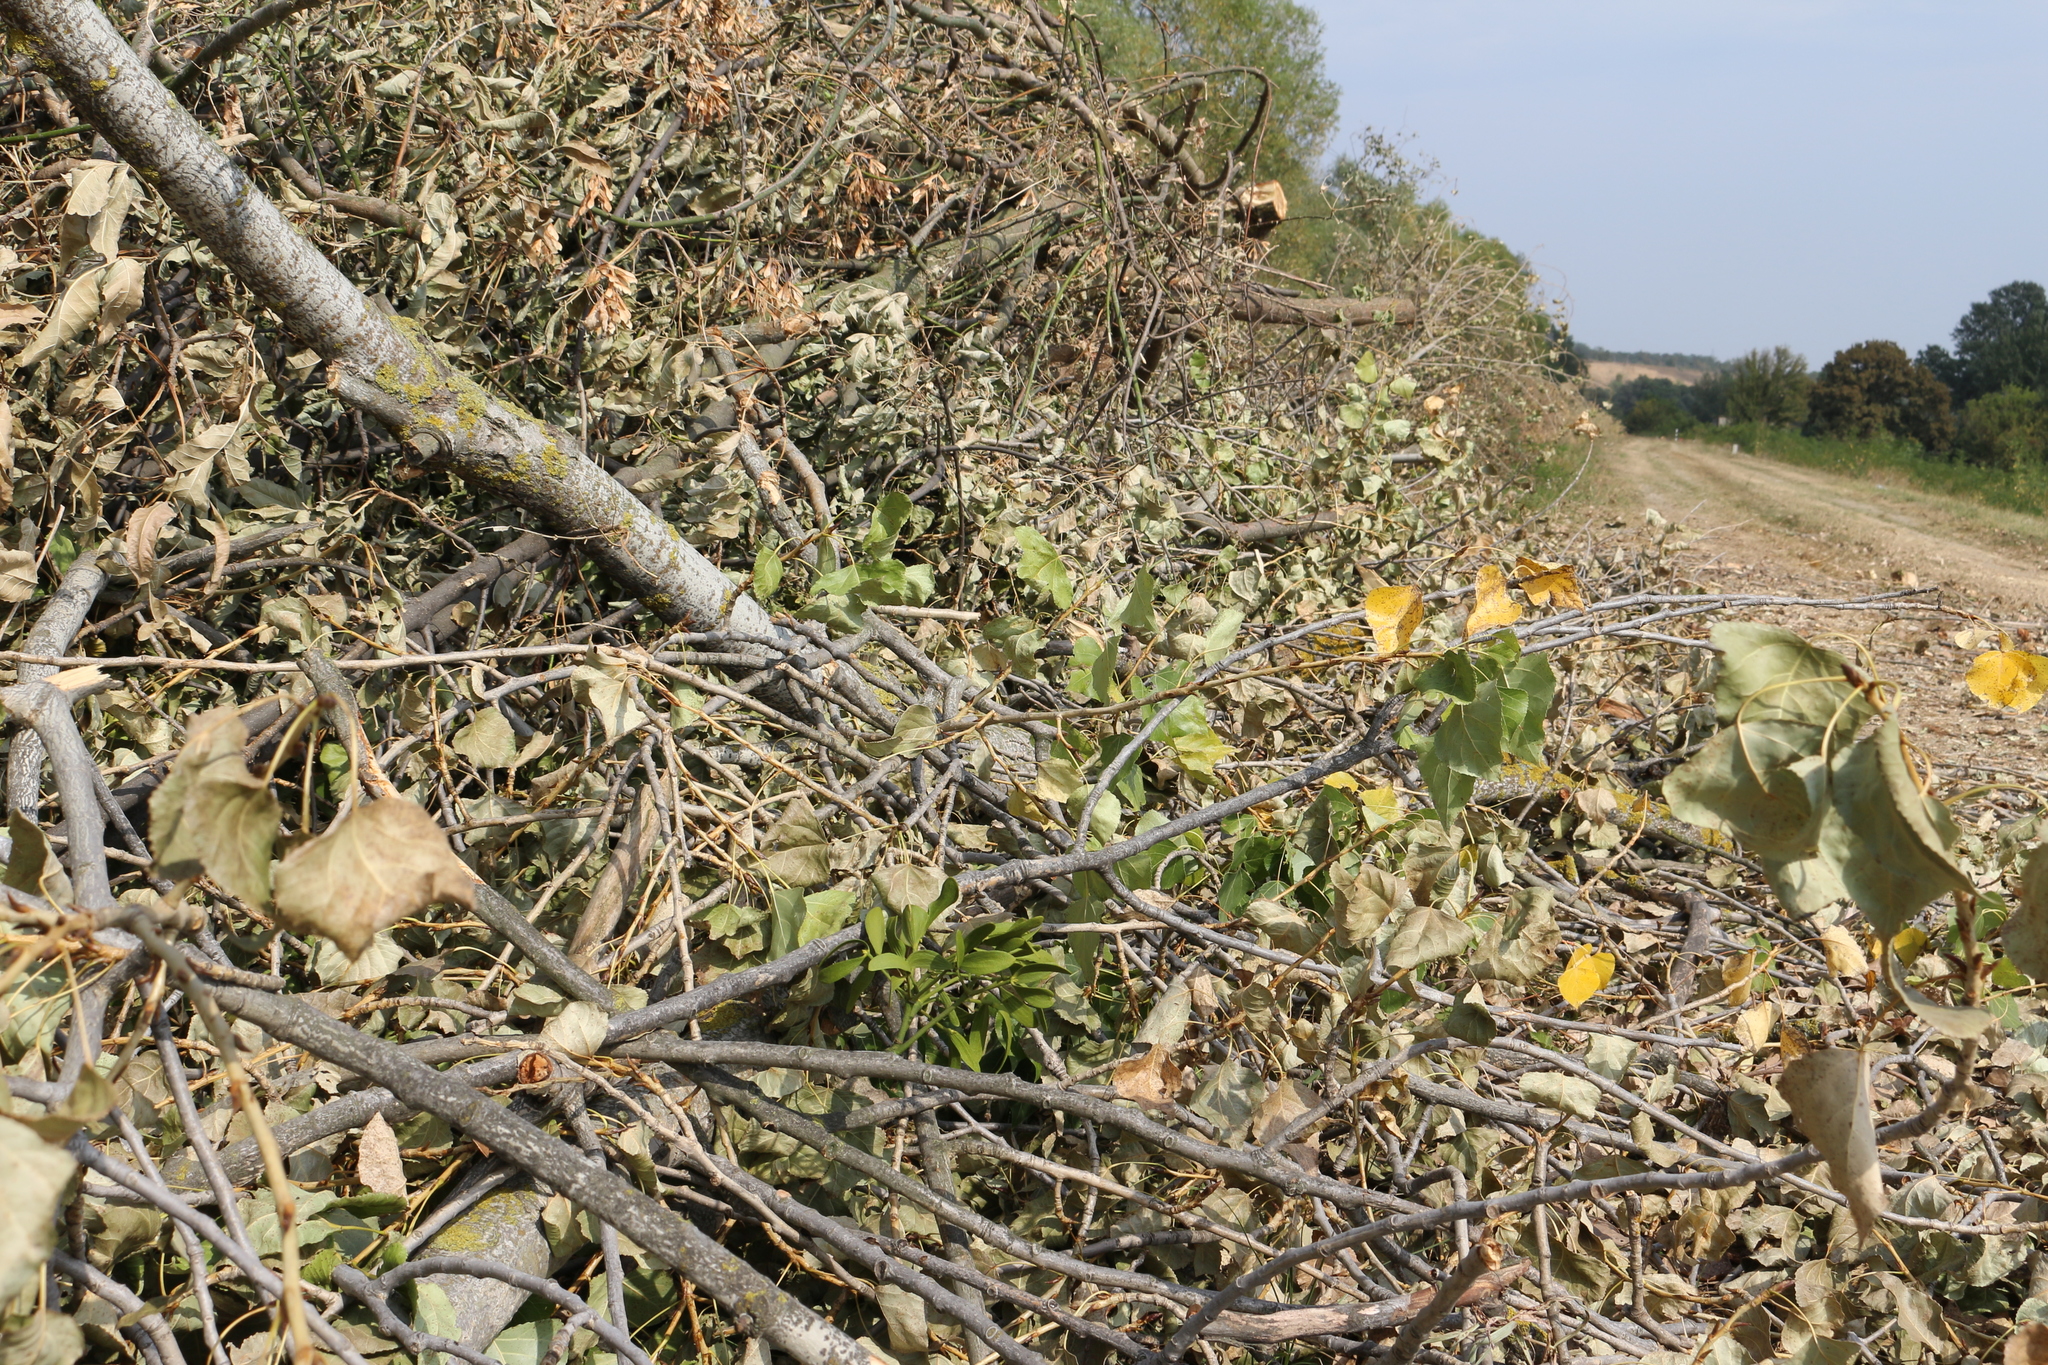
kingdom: Plantae
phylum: Tracheophyta
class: Magnoliopsida
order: Santalales
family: Viscaceae
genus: Viscum
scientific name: Viscum album
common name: Mistletoe
